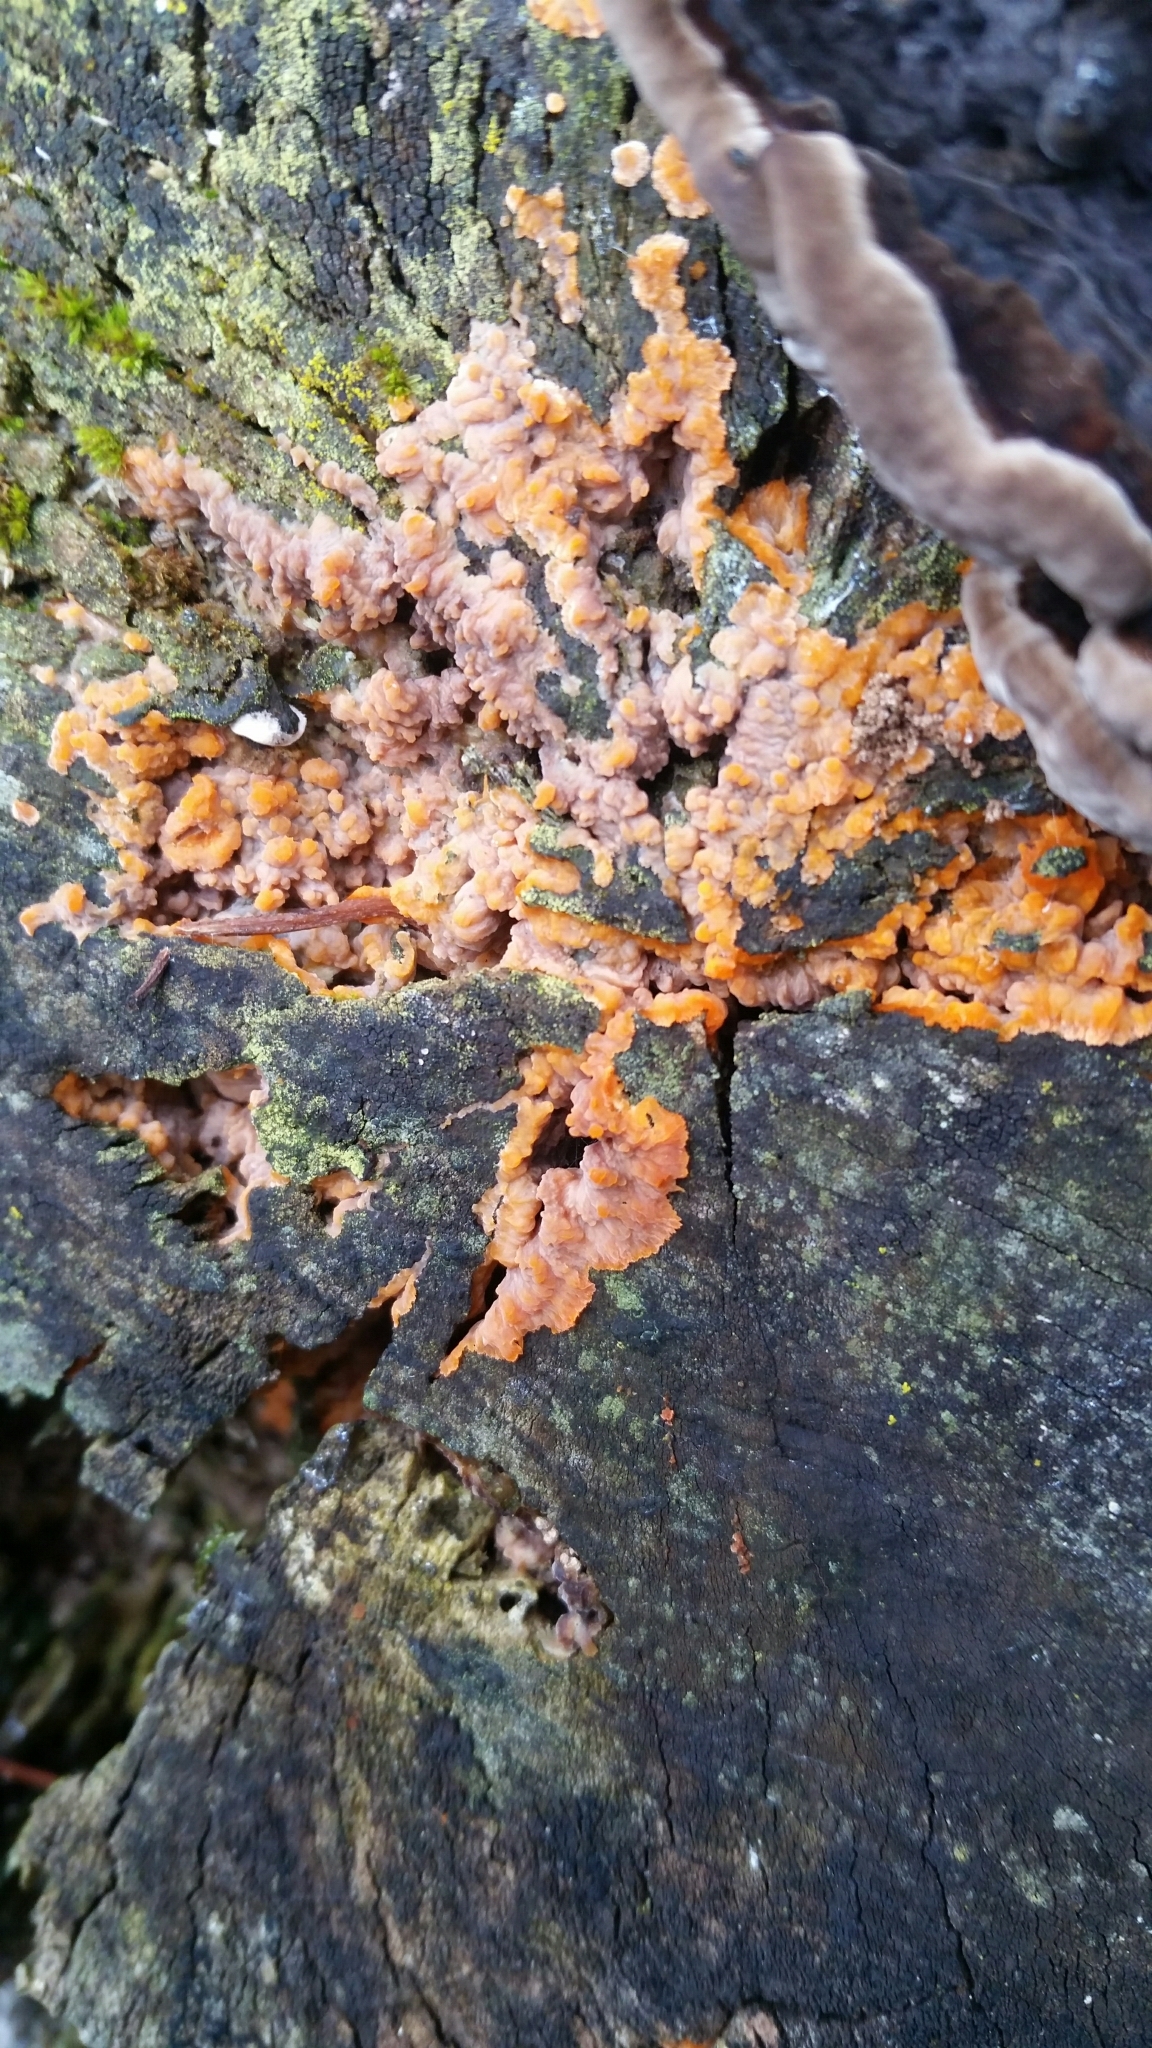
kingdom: Fungi
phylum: Basidiomycota
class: Agaricomycetes
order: Polyporales
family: Meruliaceae
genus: Phlebia
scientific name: Phlebia radiata
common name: Wrinkled crust
